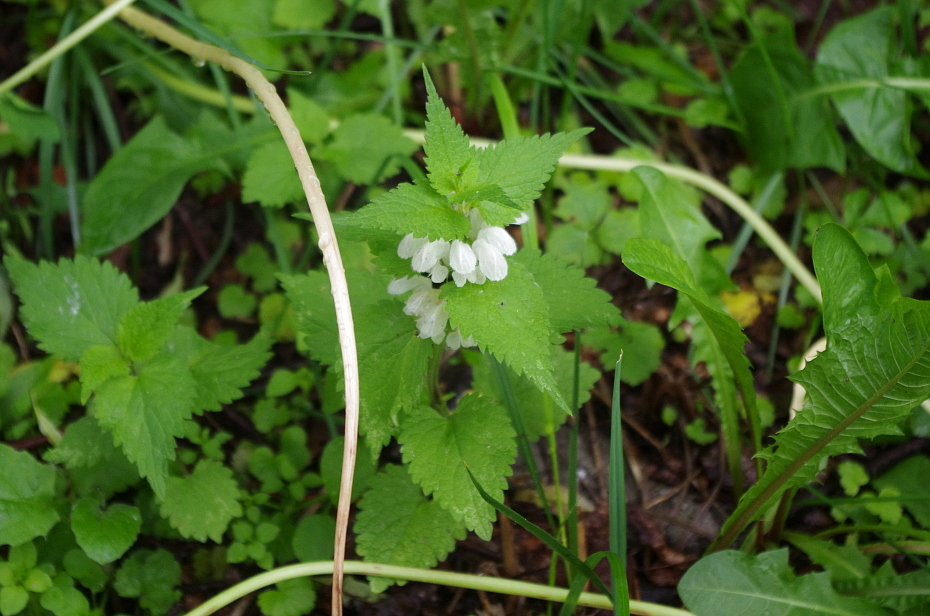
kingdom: Plantae
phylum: Tracheophyta
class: Magnoliopsida
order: Lamiales
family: Lamiaceae
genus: Lamium
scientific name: Lamium album
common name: White dead-nettle
